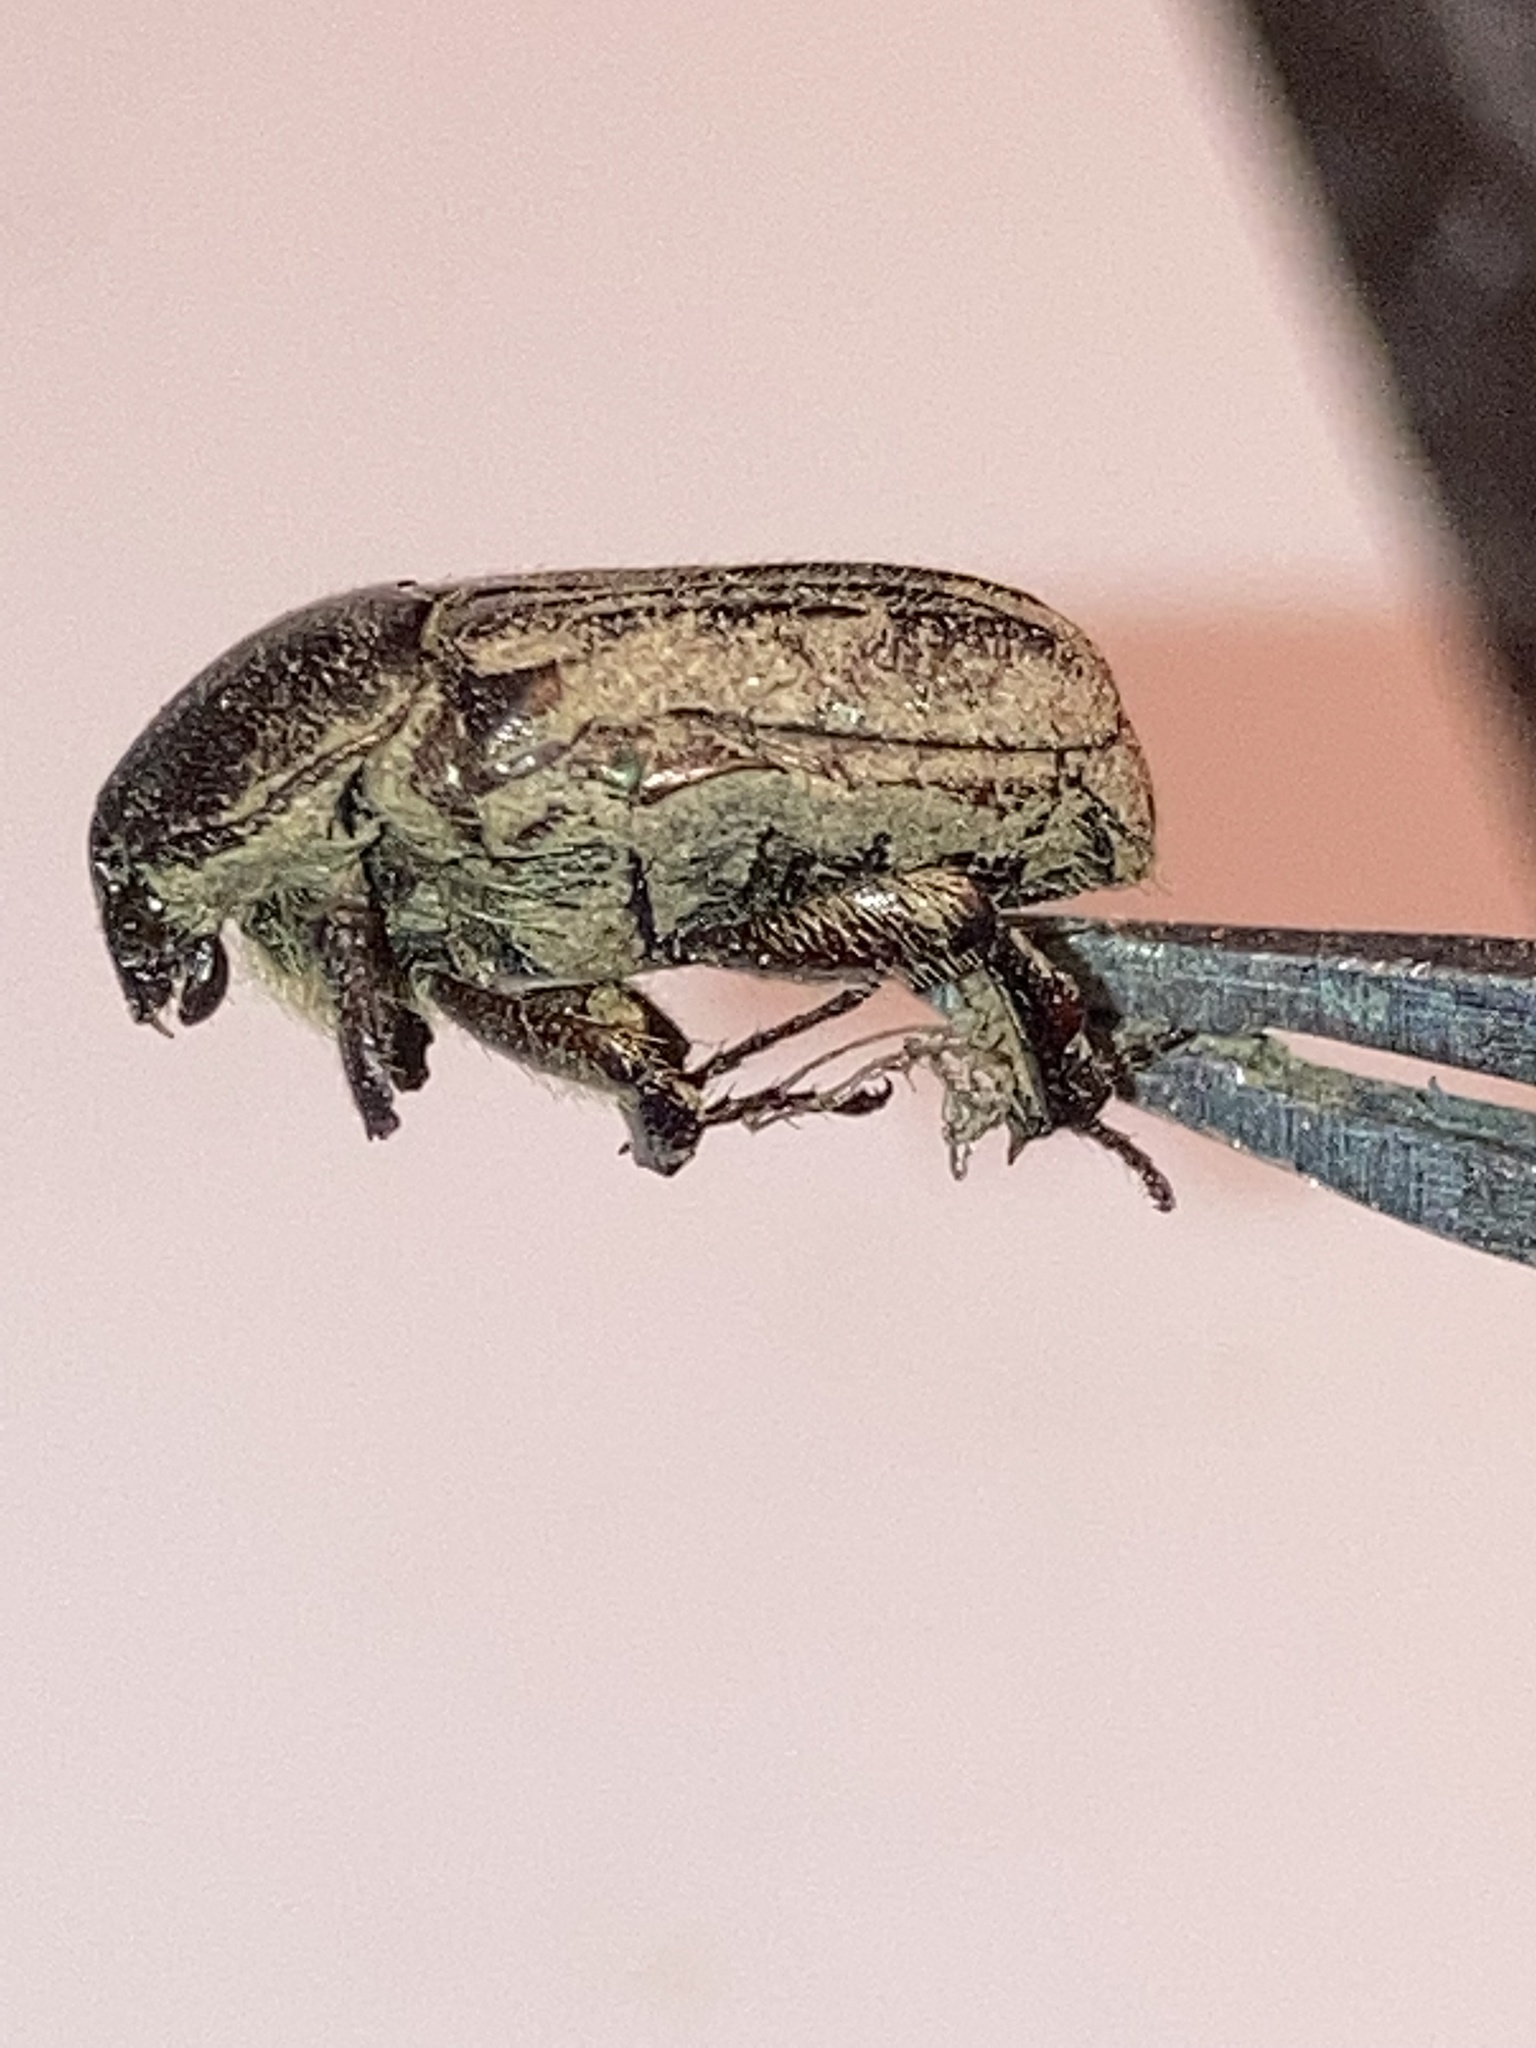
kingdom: Animalia
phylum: Arthropoda
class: Insecta
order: Coleoptera
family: Scarabaeidae
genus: Euphoria
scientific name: Euphoria sepulcralis
